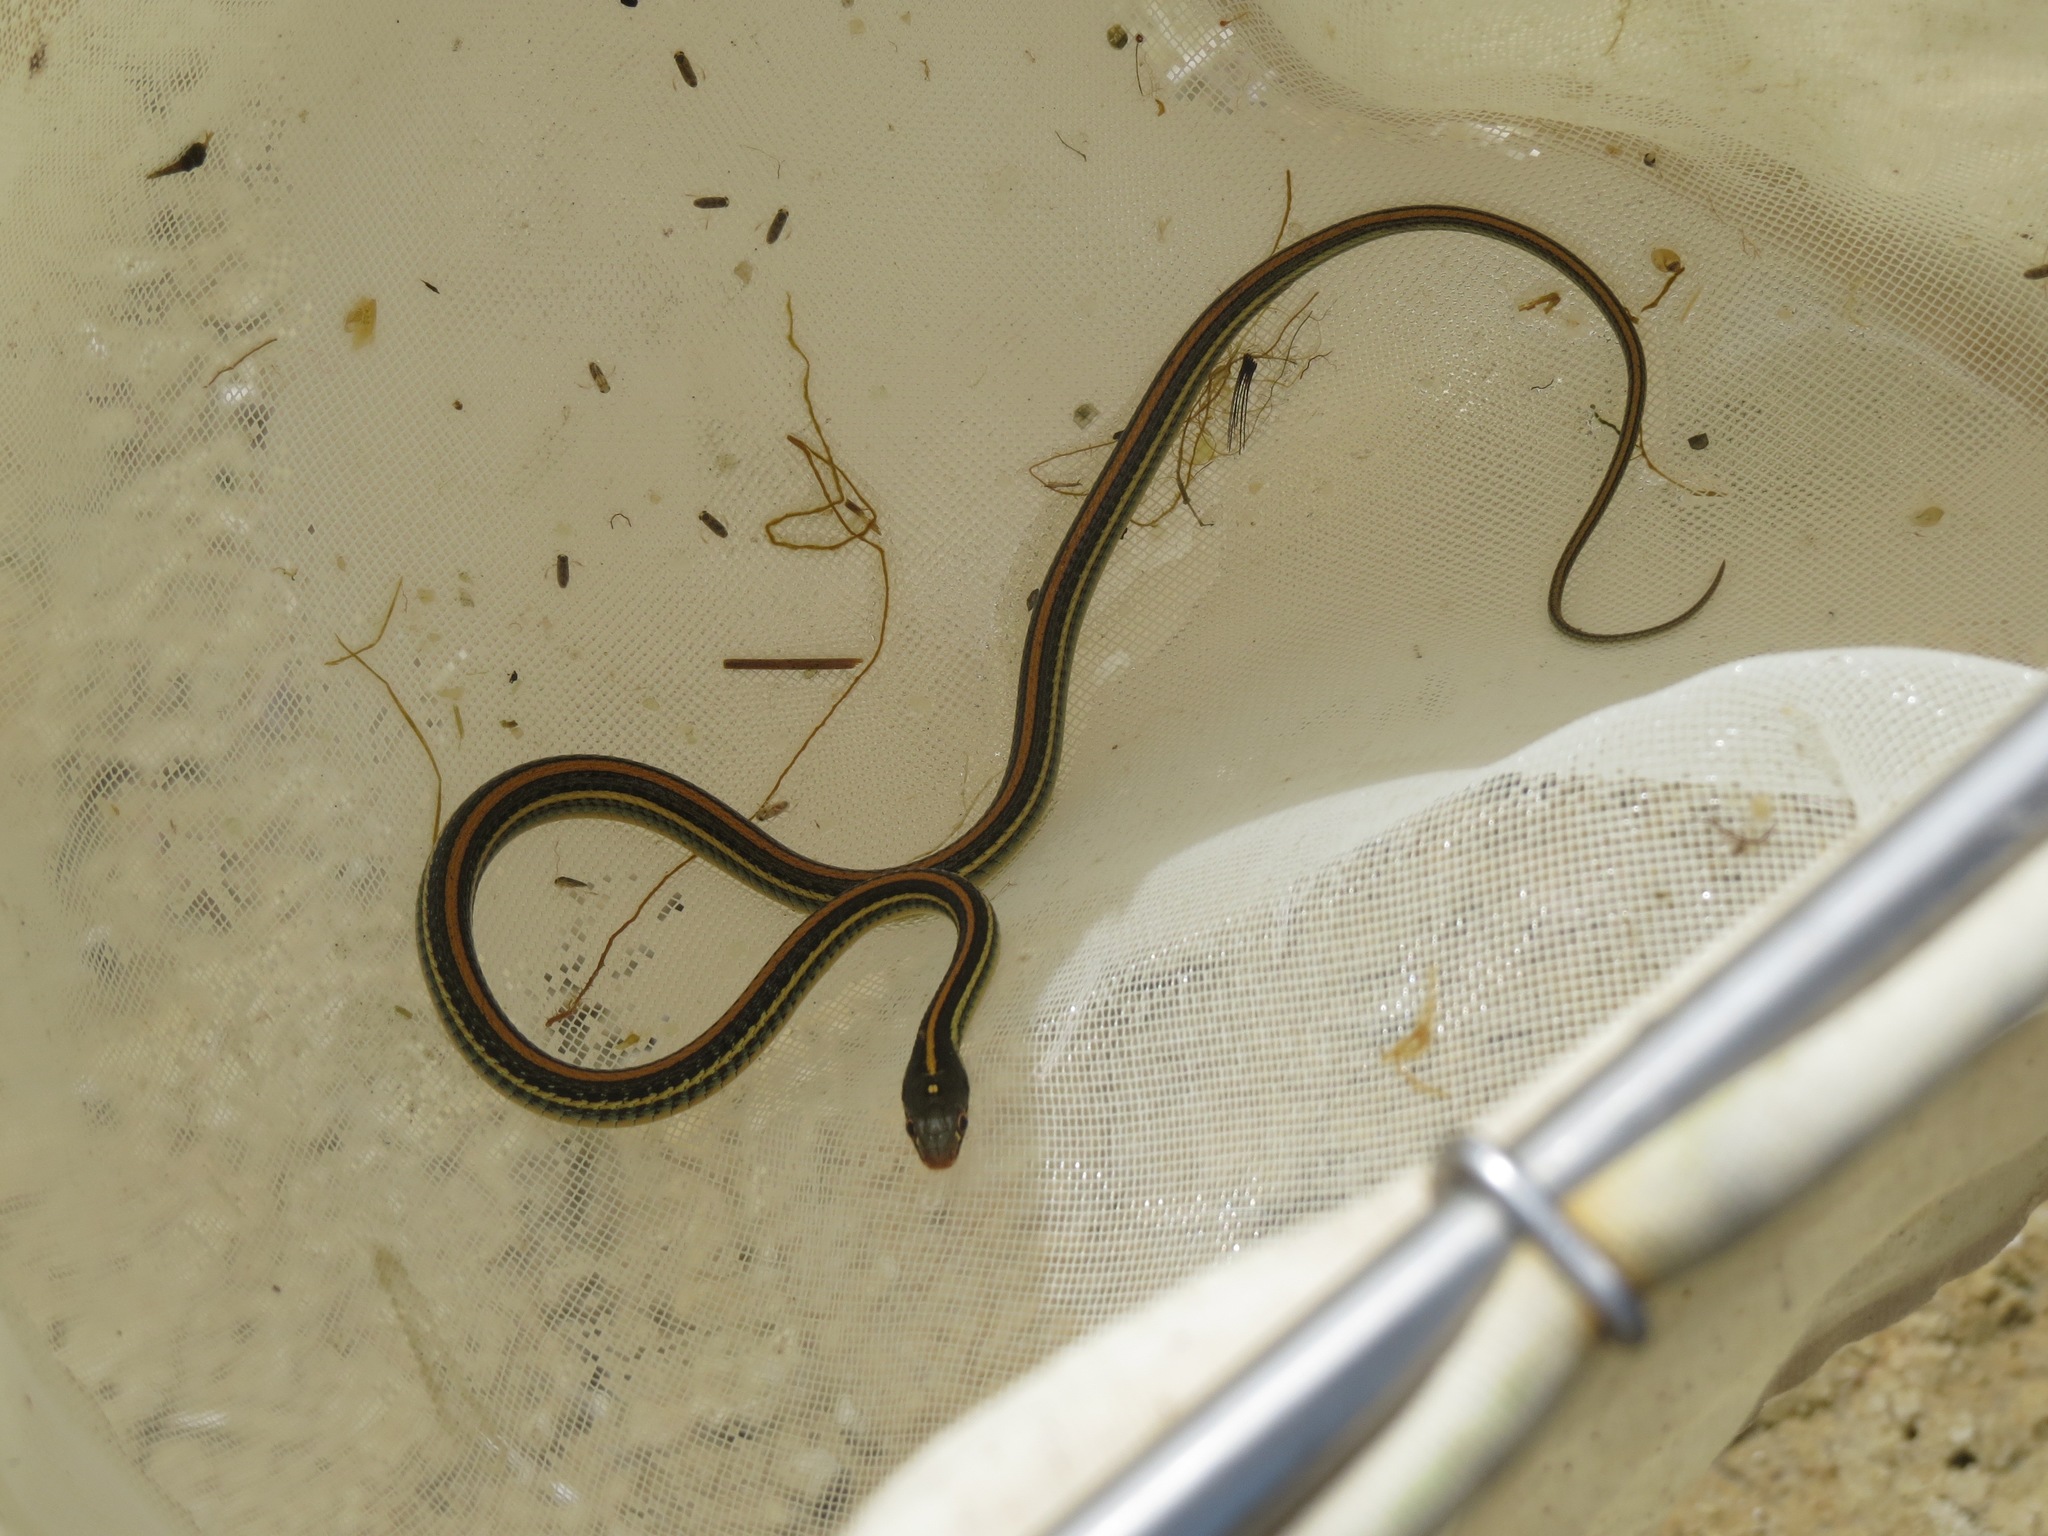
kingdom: Animalia
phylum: Chordata
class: Squamata
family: Colubridae
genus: Thamnophis
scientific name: Thamnophis proximus
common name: Western ribbon snake
